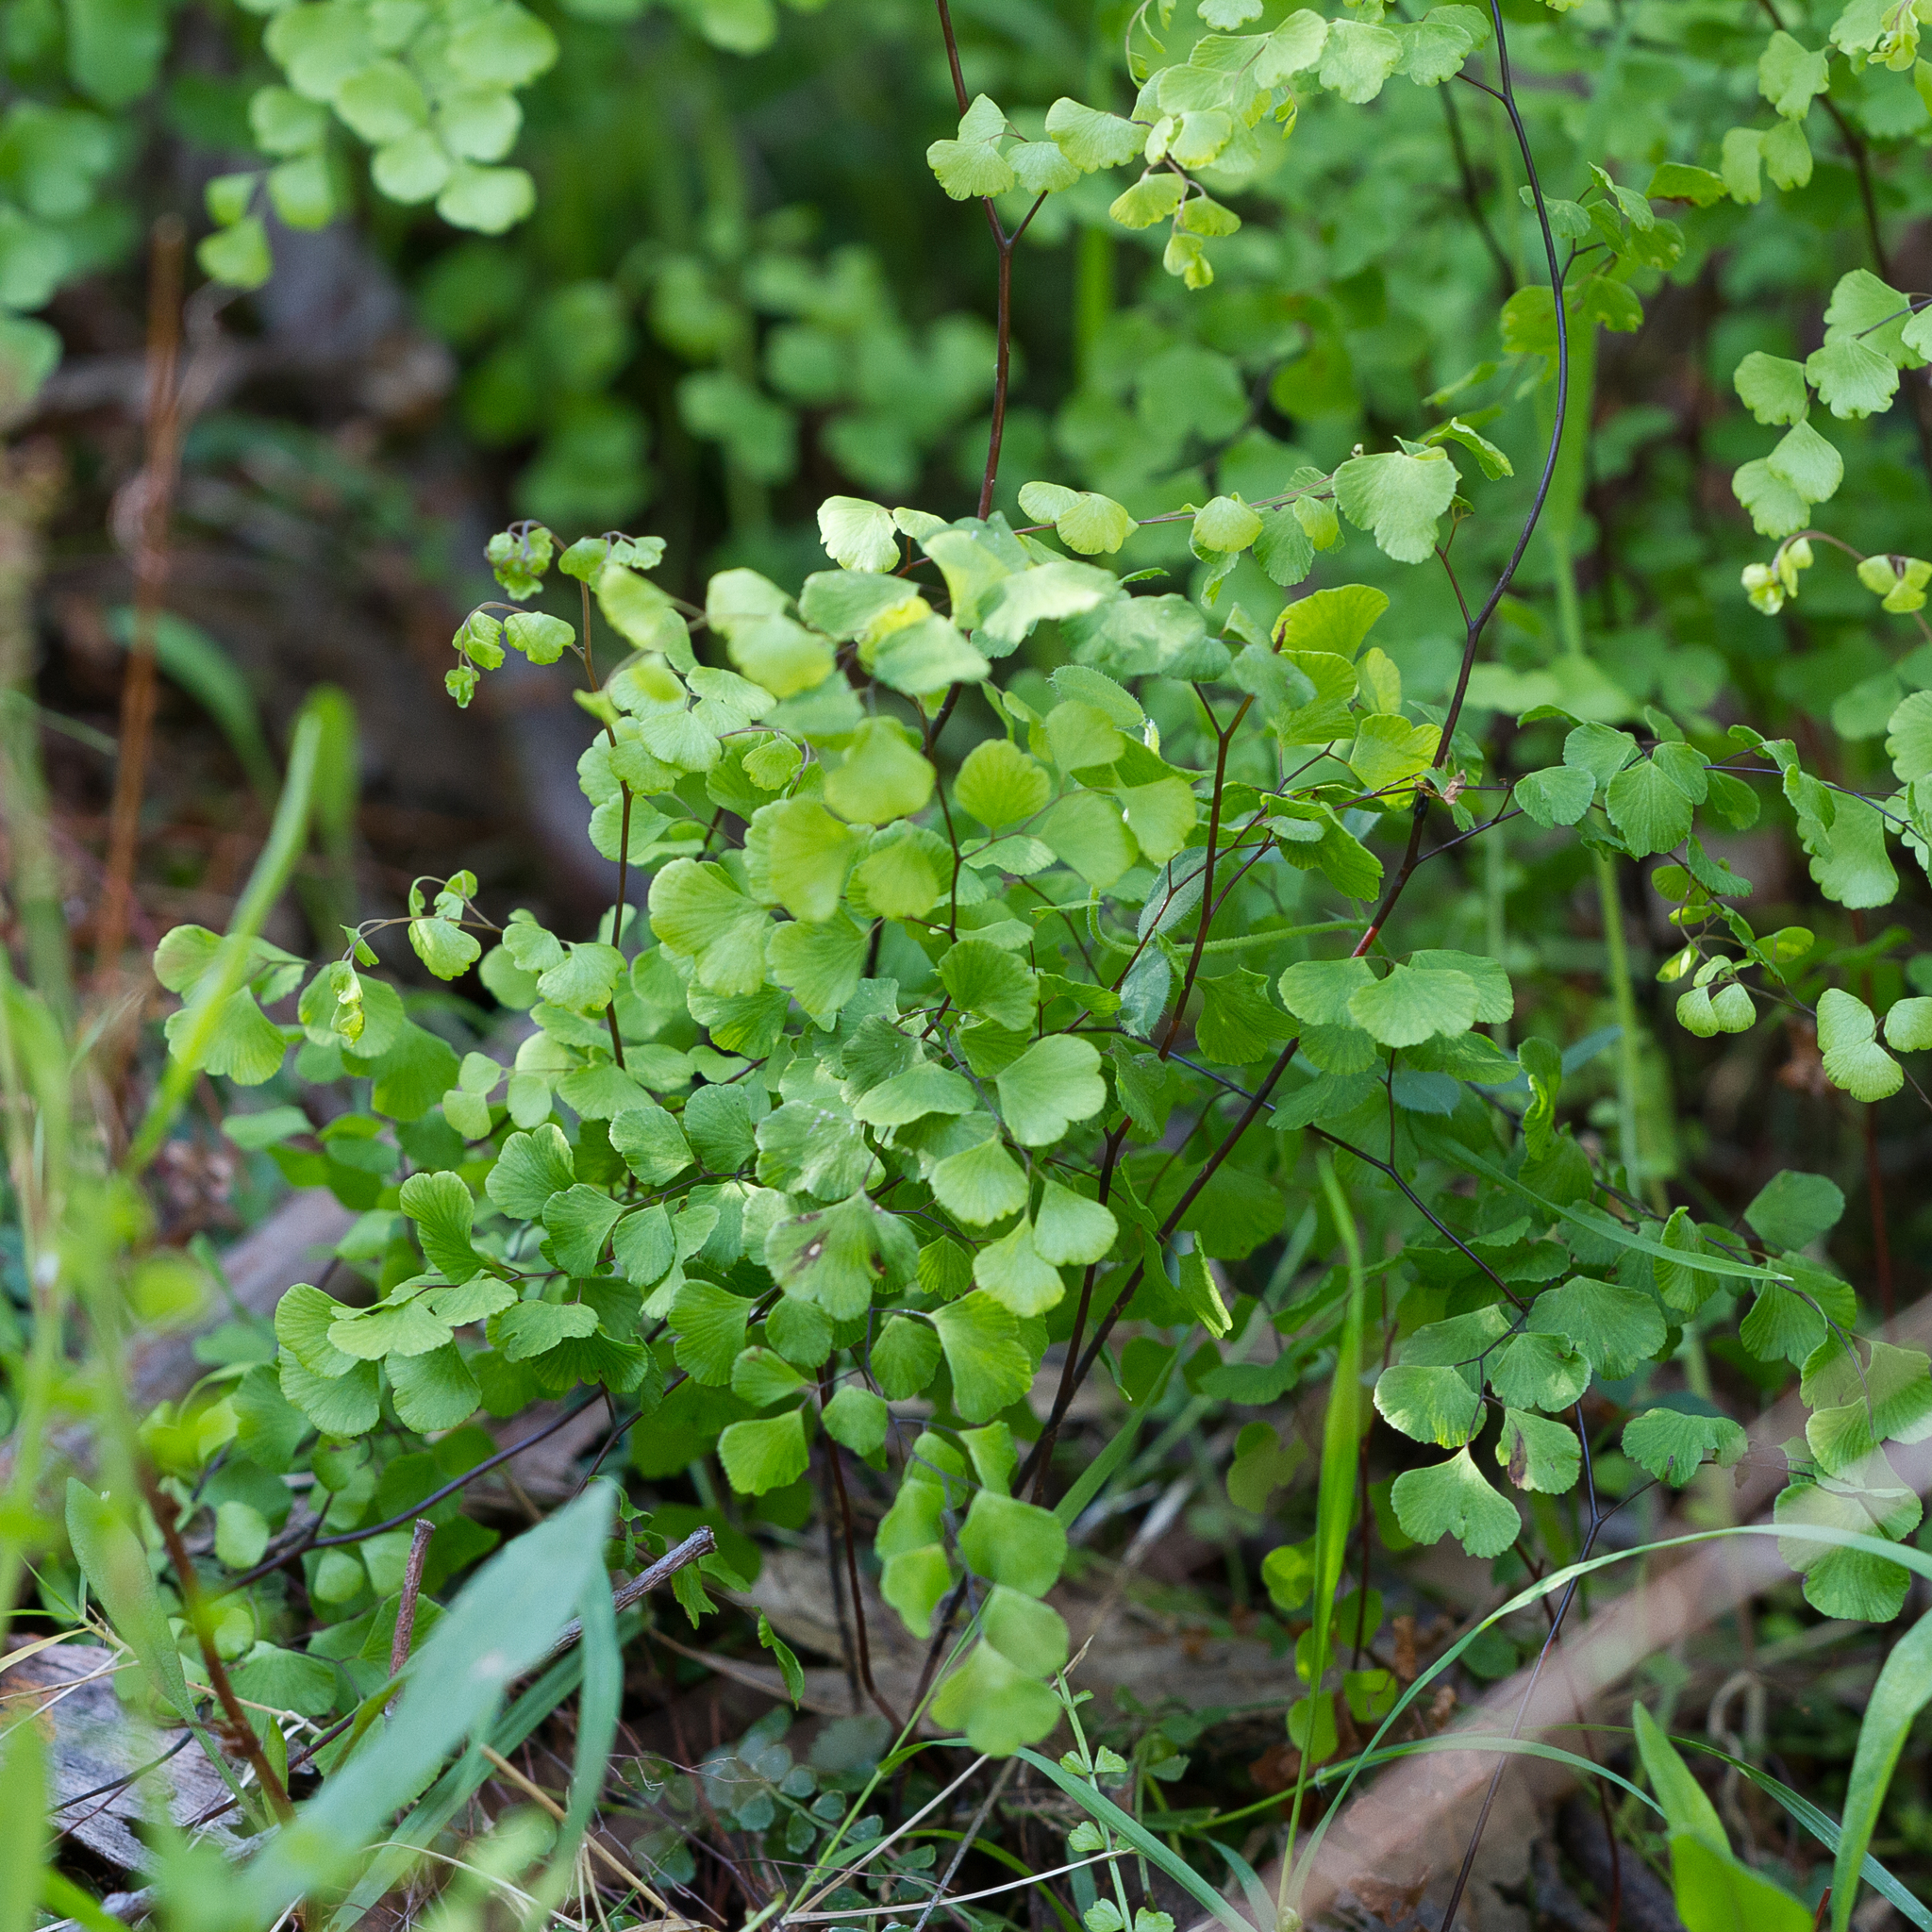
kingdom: Plantae
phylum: Tracheophyta
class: Polypodiopsida
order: Polypodiales
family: Pteridaceae
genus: Adiantum
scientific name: Adiantum aethiopicum
